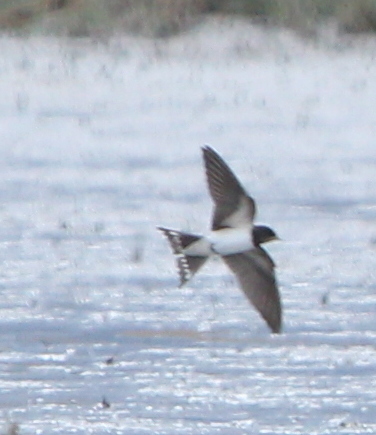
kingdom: Animalia
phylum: Chordata
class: Aves
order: Passeriformes
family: Hirundinidae
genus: Hirundo
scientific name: Hirundo rustica
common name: Barn swallow
